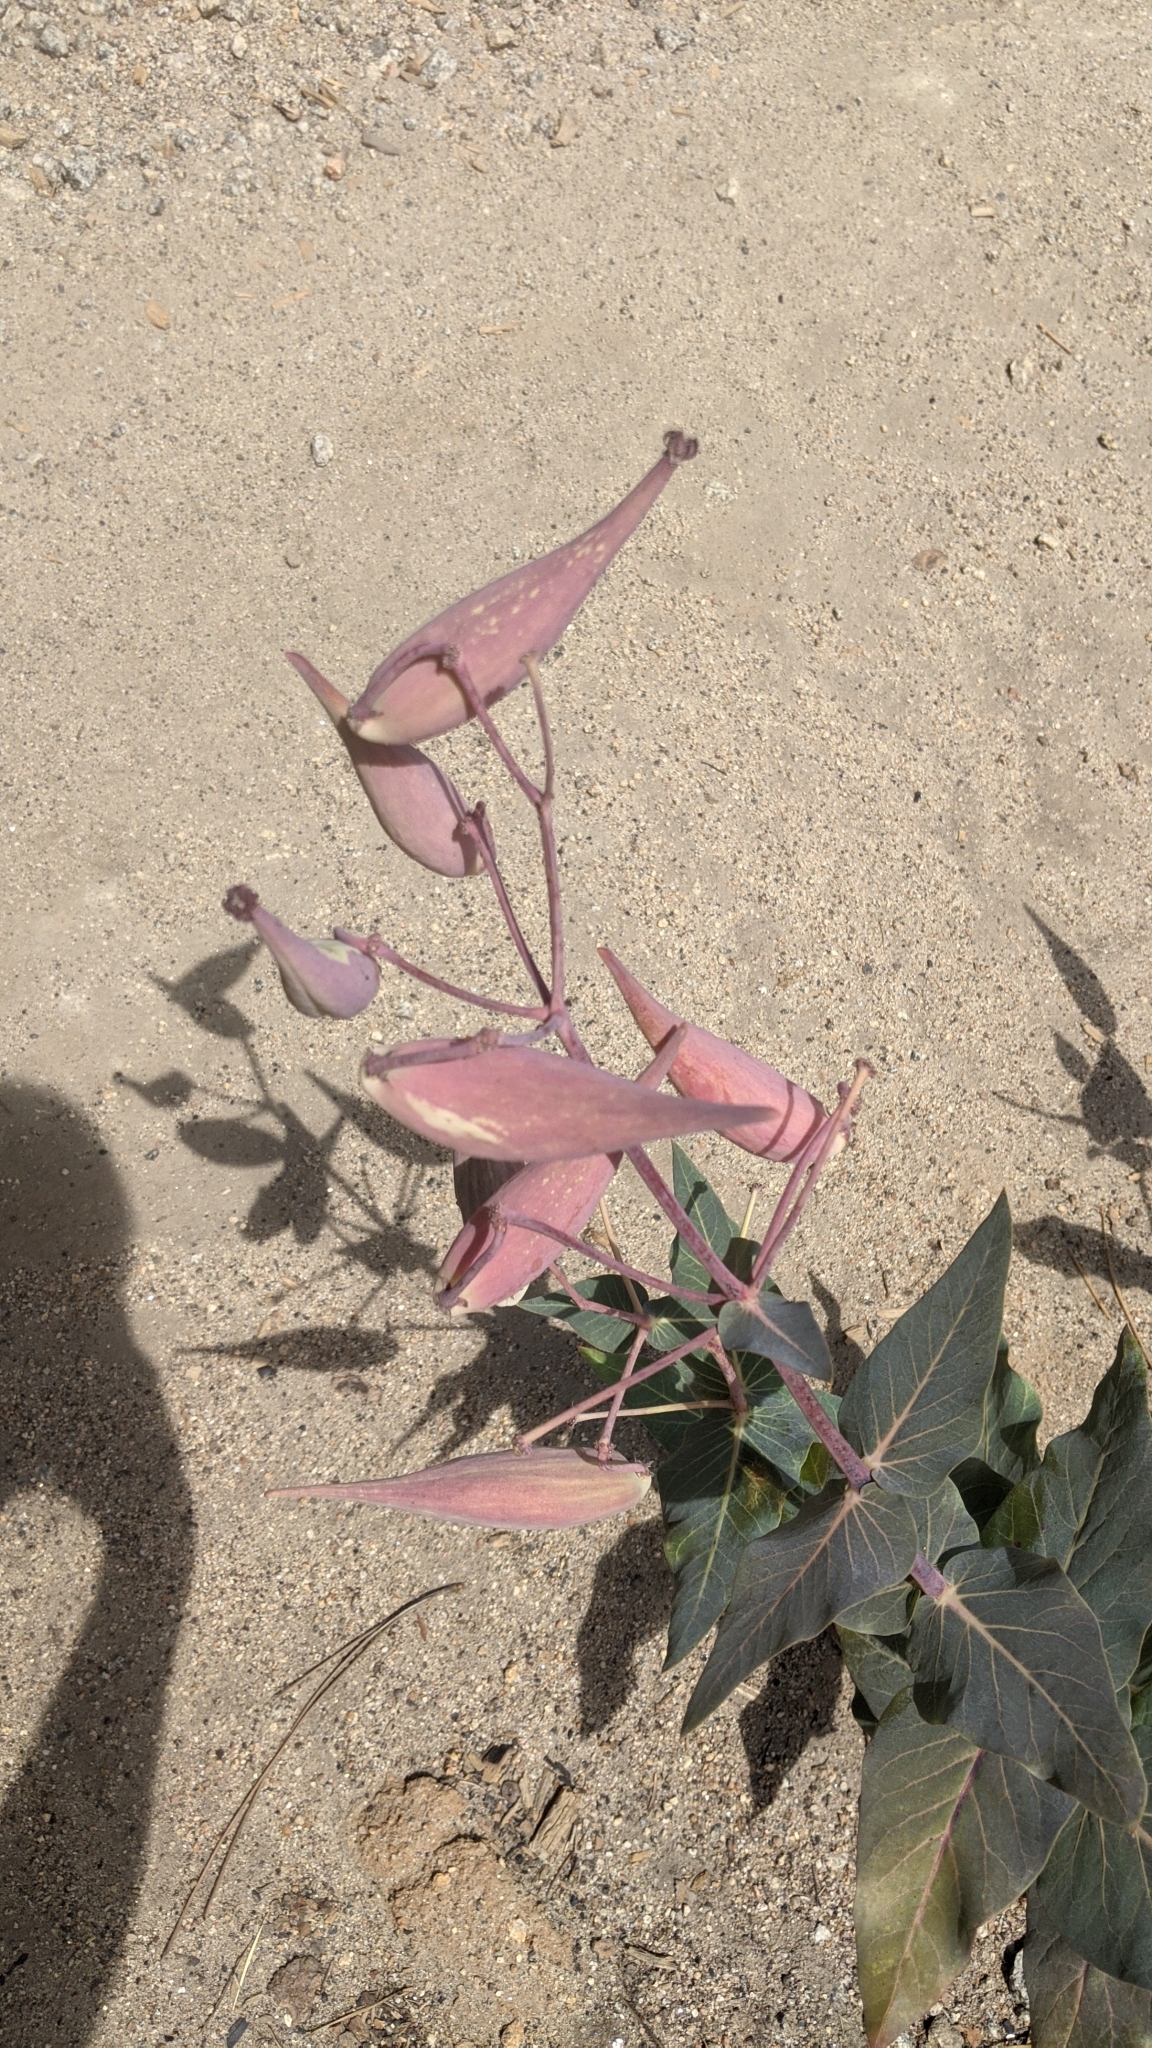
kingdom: Plantae
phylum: Tracheophyta
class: Magnoliopsida
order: Gentianales
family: Apocynaceae
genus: Asclepias
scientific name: Asclepias cordifolia
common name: Purple milkweed
